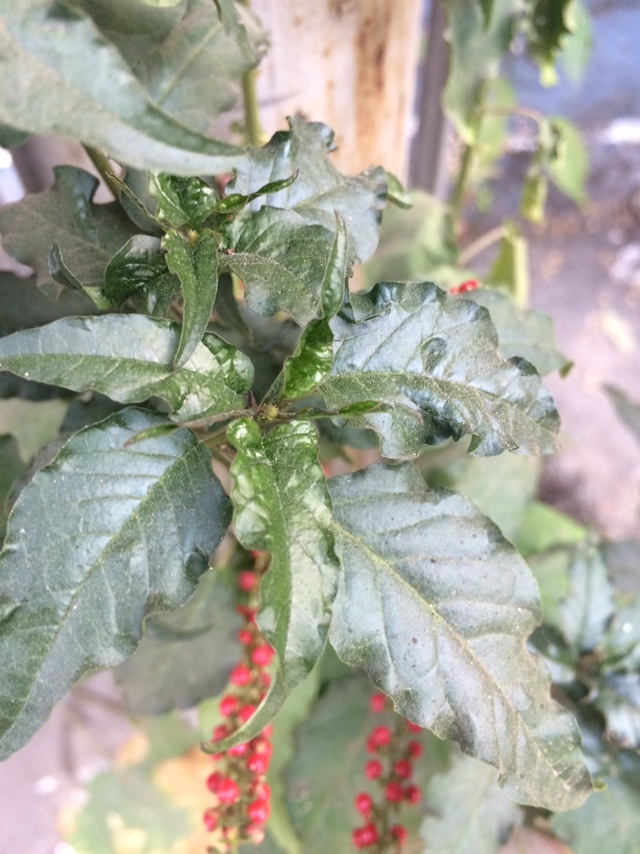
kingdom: Plantae
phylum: Tracheophyta
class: Magnoliopsida
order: Caryophyllales
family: Phytolaccaceae
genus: Rivina
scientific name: Rivina humilis
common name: Rougeplant
